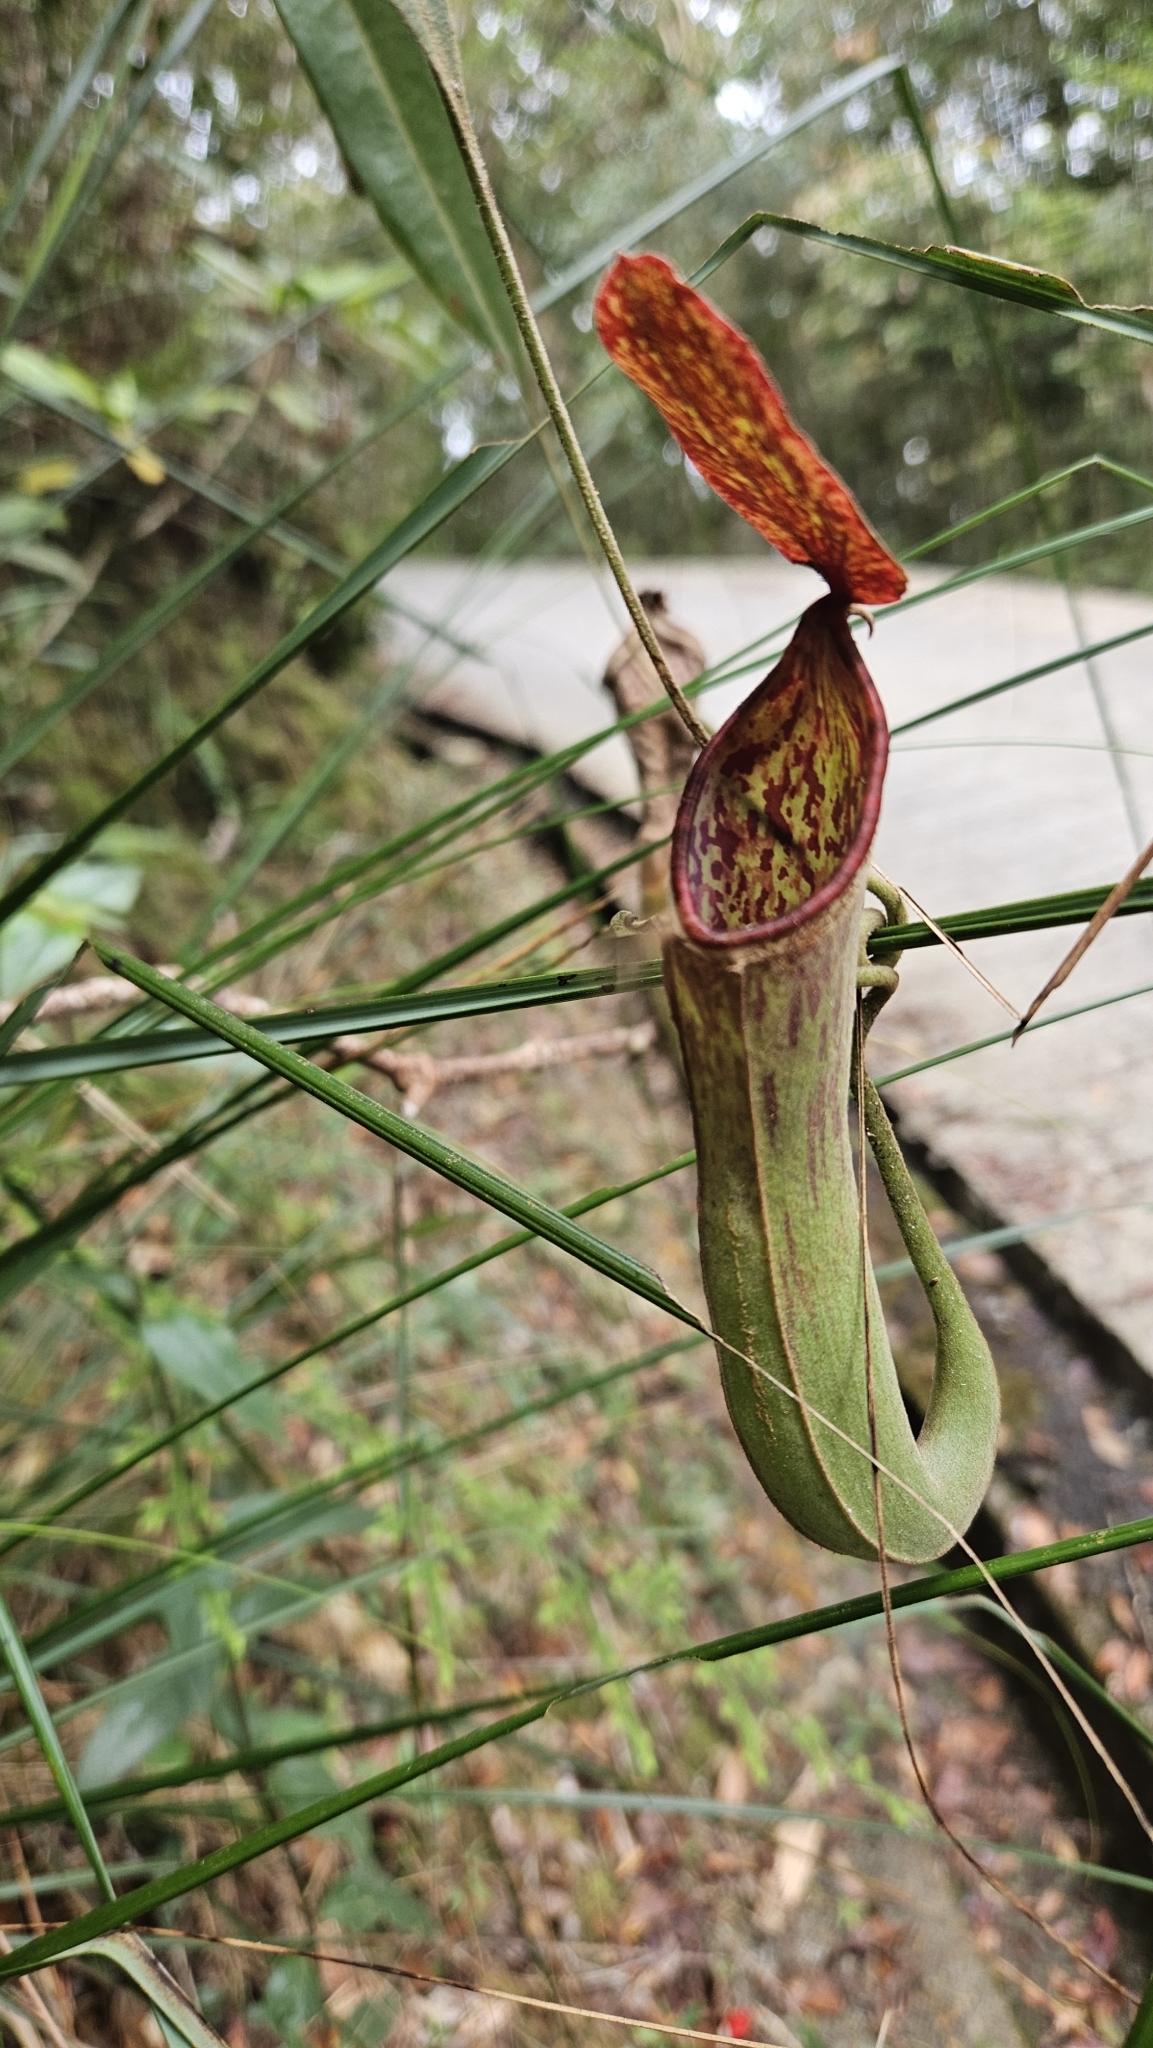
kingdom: Plantae
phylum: Tracheophyta
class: Magnoliopsida
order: Caryophyllales
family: Nepenthaceae
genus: Nepenthes
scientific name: Nepenthes albomarginata
